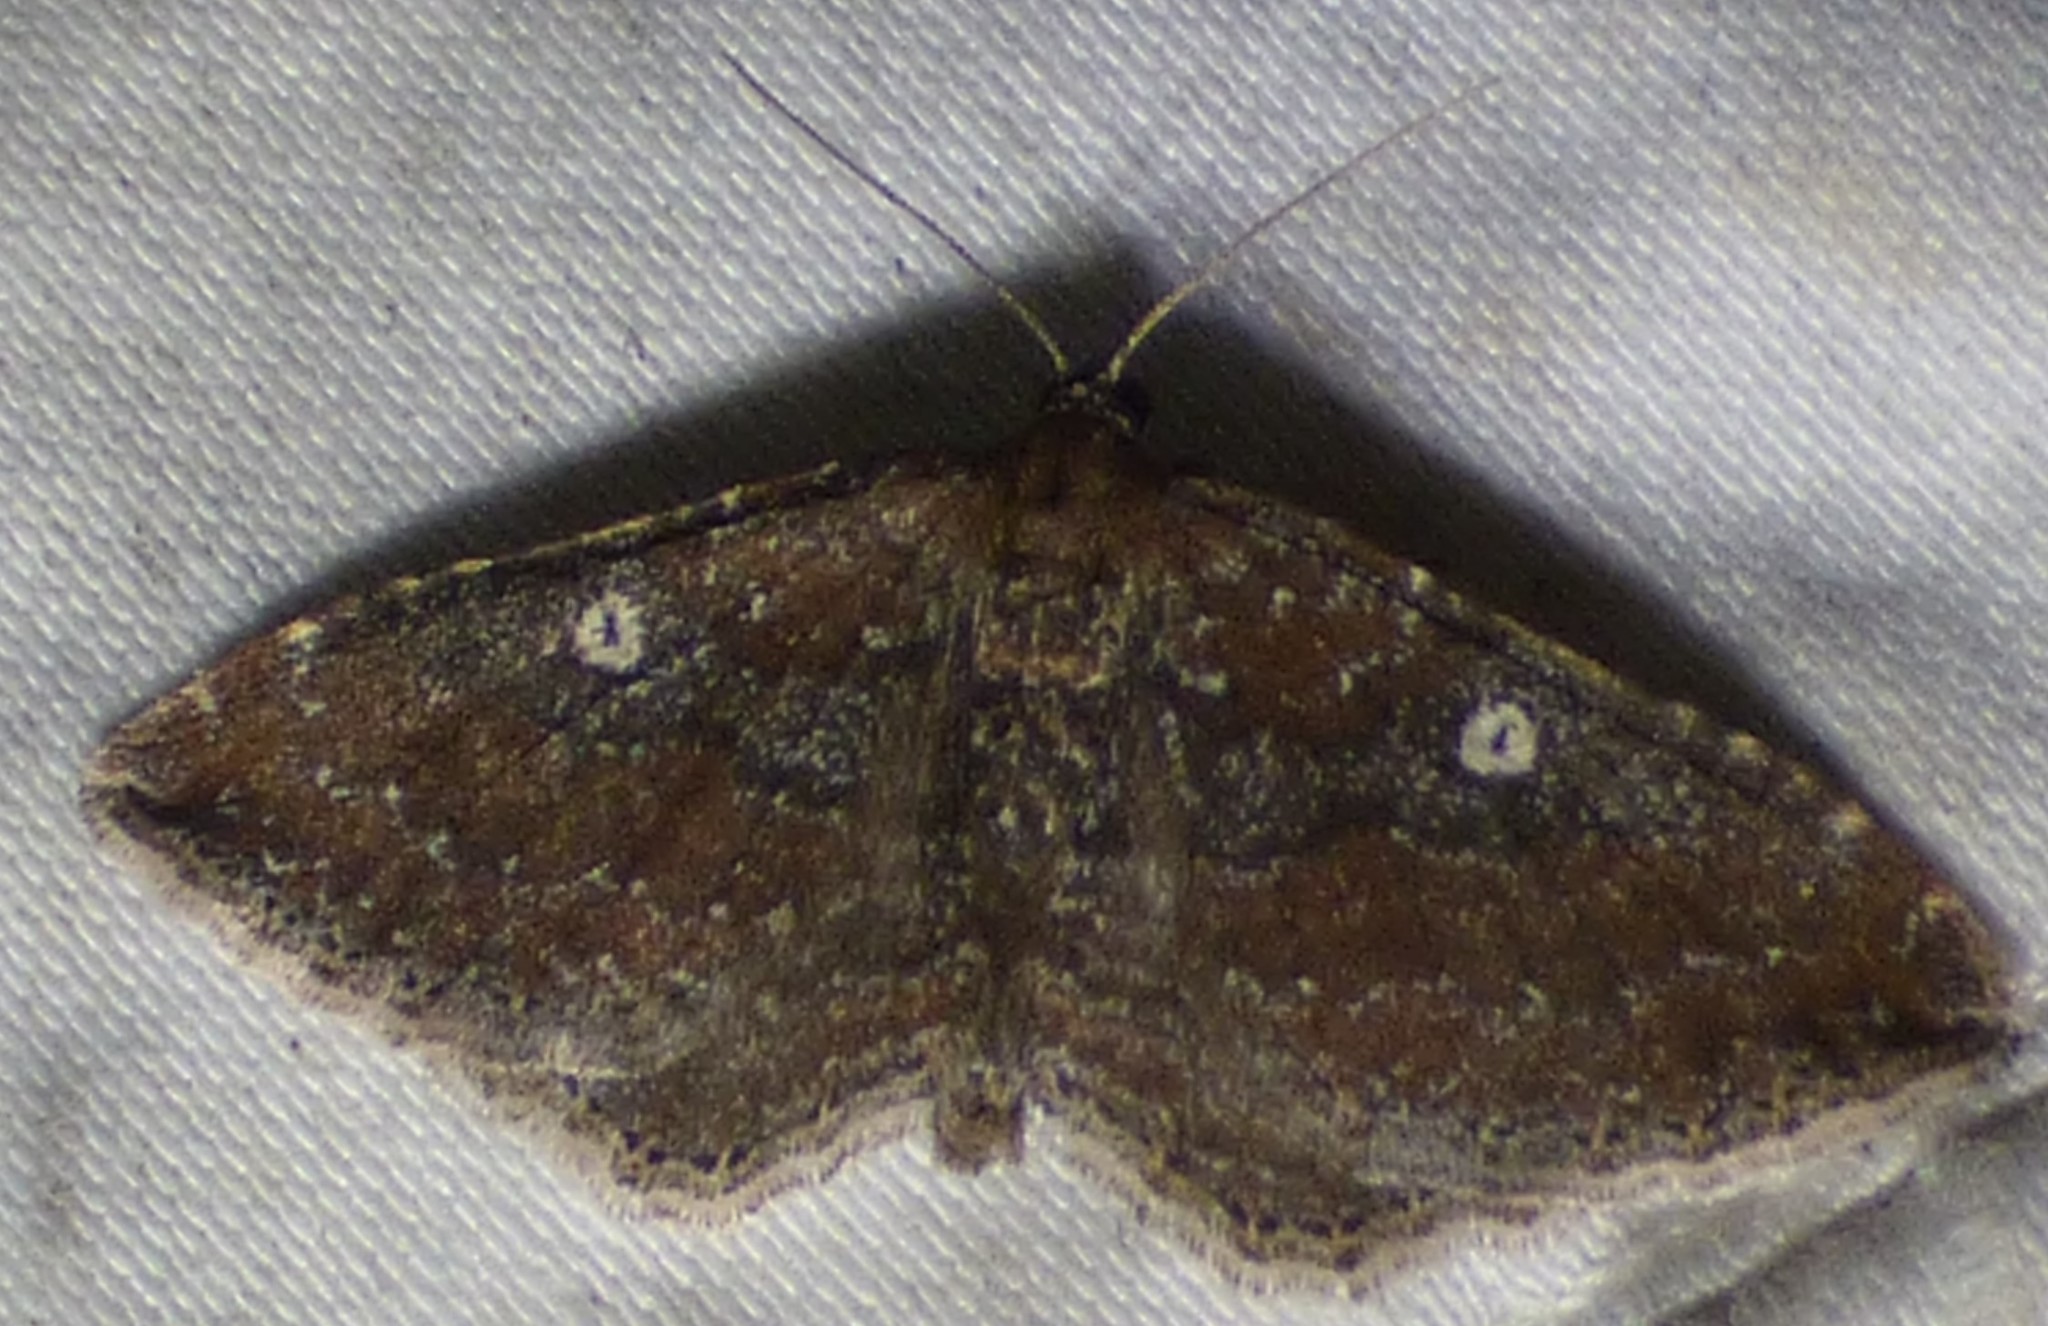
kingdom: Animalia
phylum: Arthropoda
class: Insecta
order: Lepidoptera
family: Geometridae
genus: Orthonama
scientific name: Orthonama obstipata
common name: The gem
